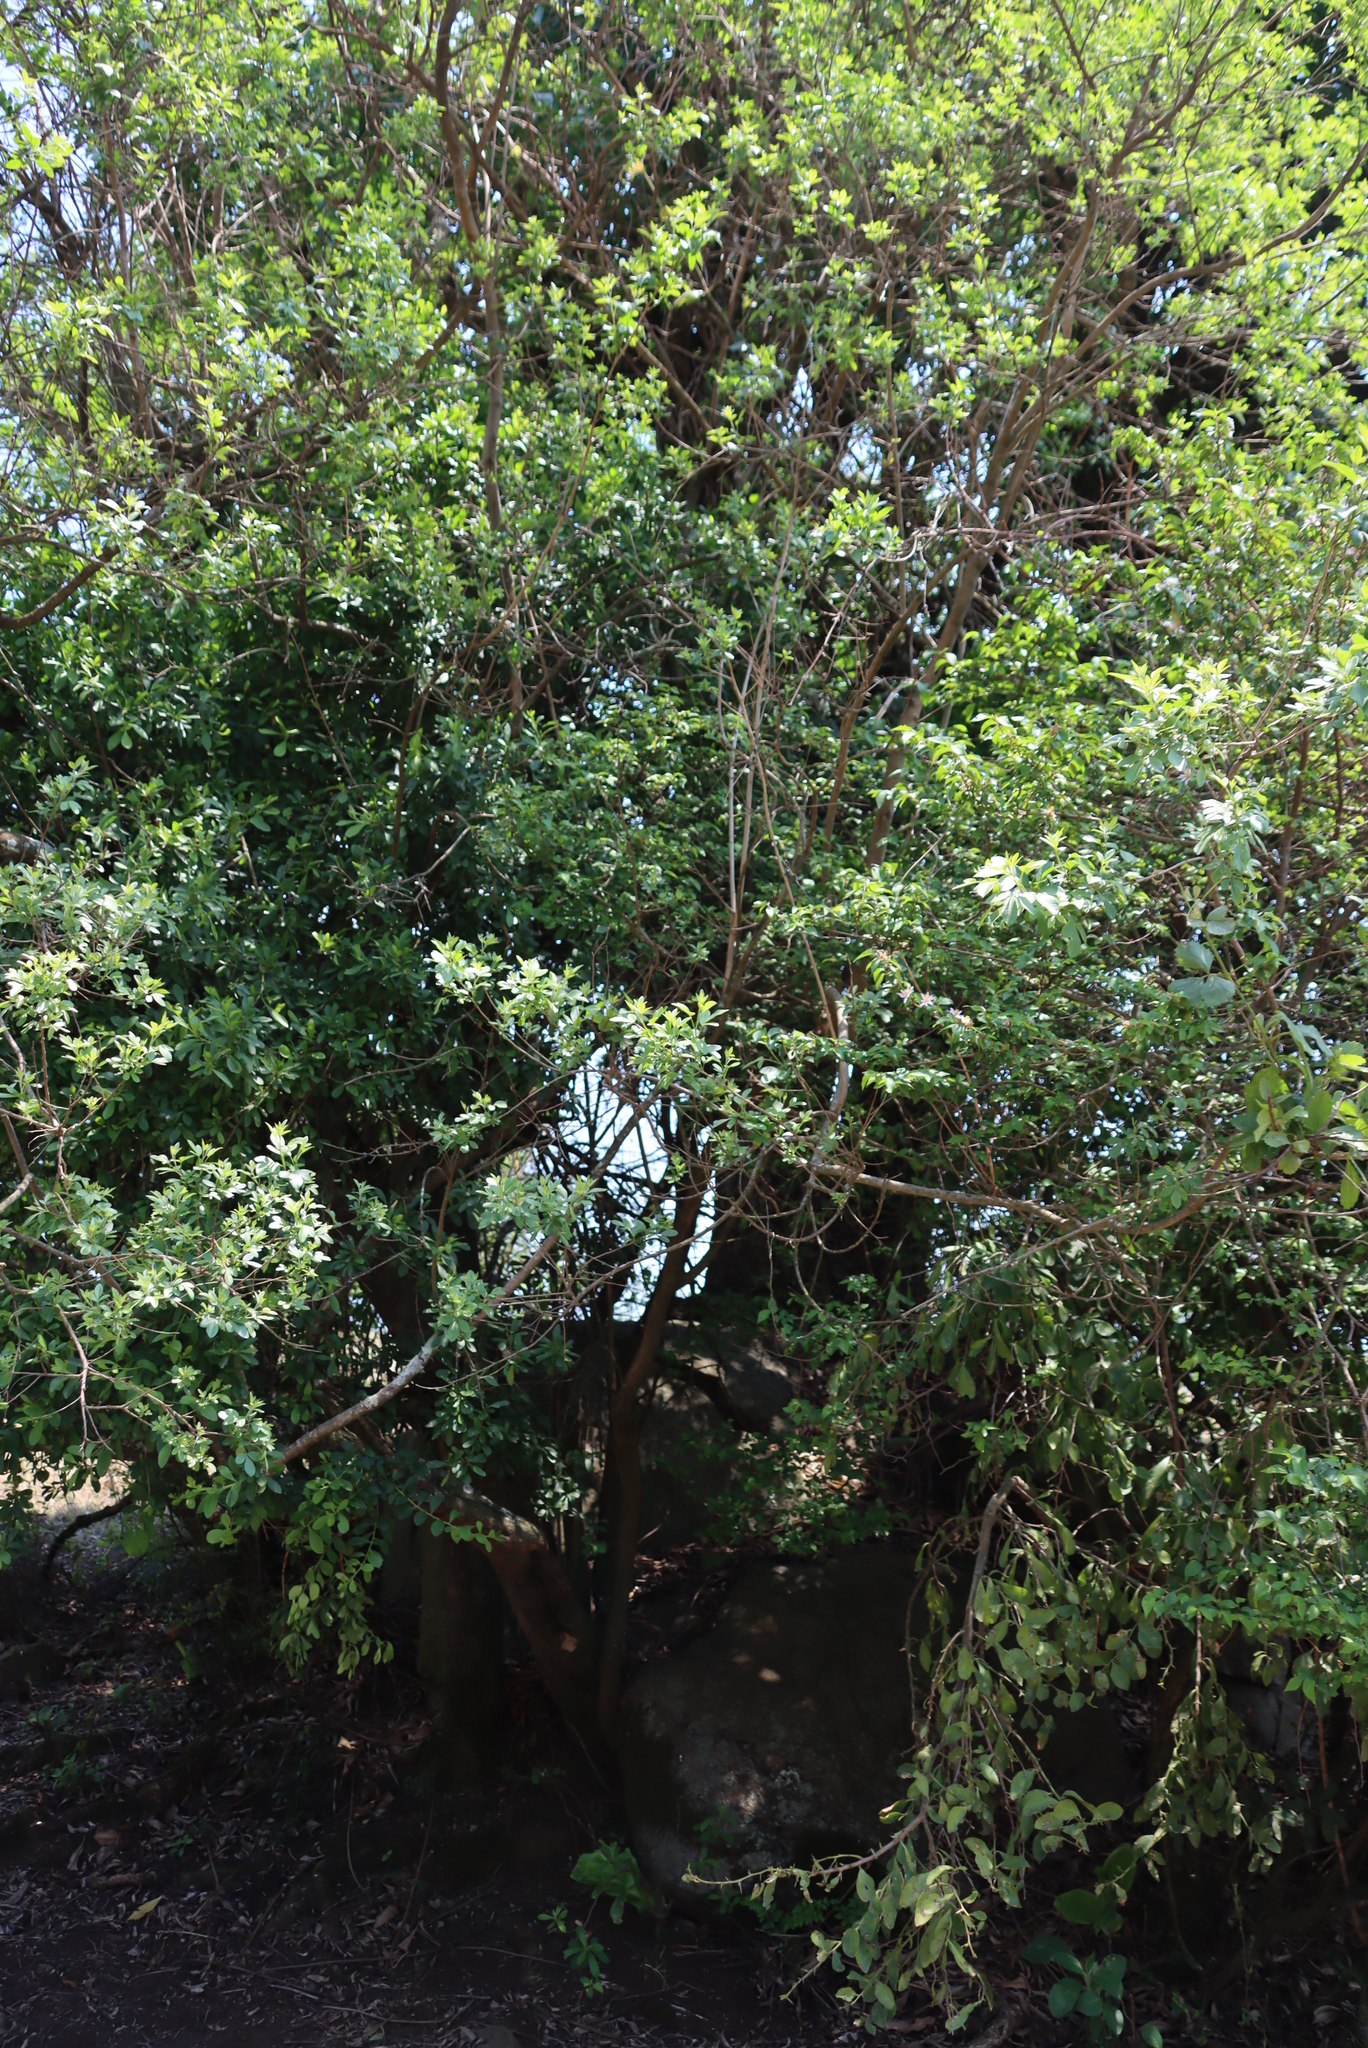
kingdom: Plantae
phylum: Tracheophyta
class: Magnoliopsida
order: Malvales
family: Malvaceae
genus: Grewia
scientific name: Grewia occidentalis
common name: Crossberry
